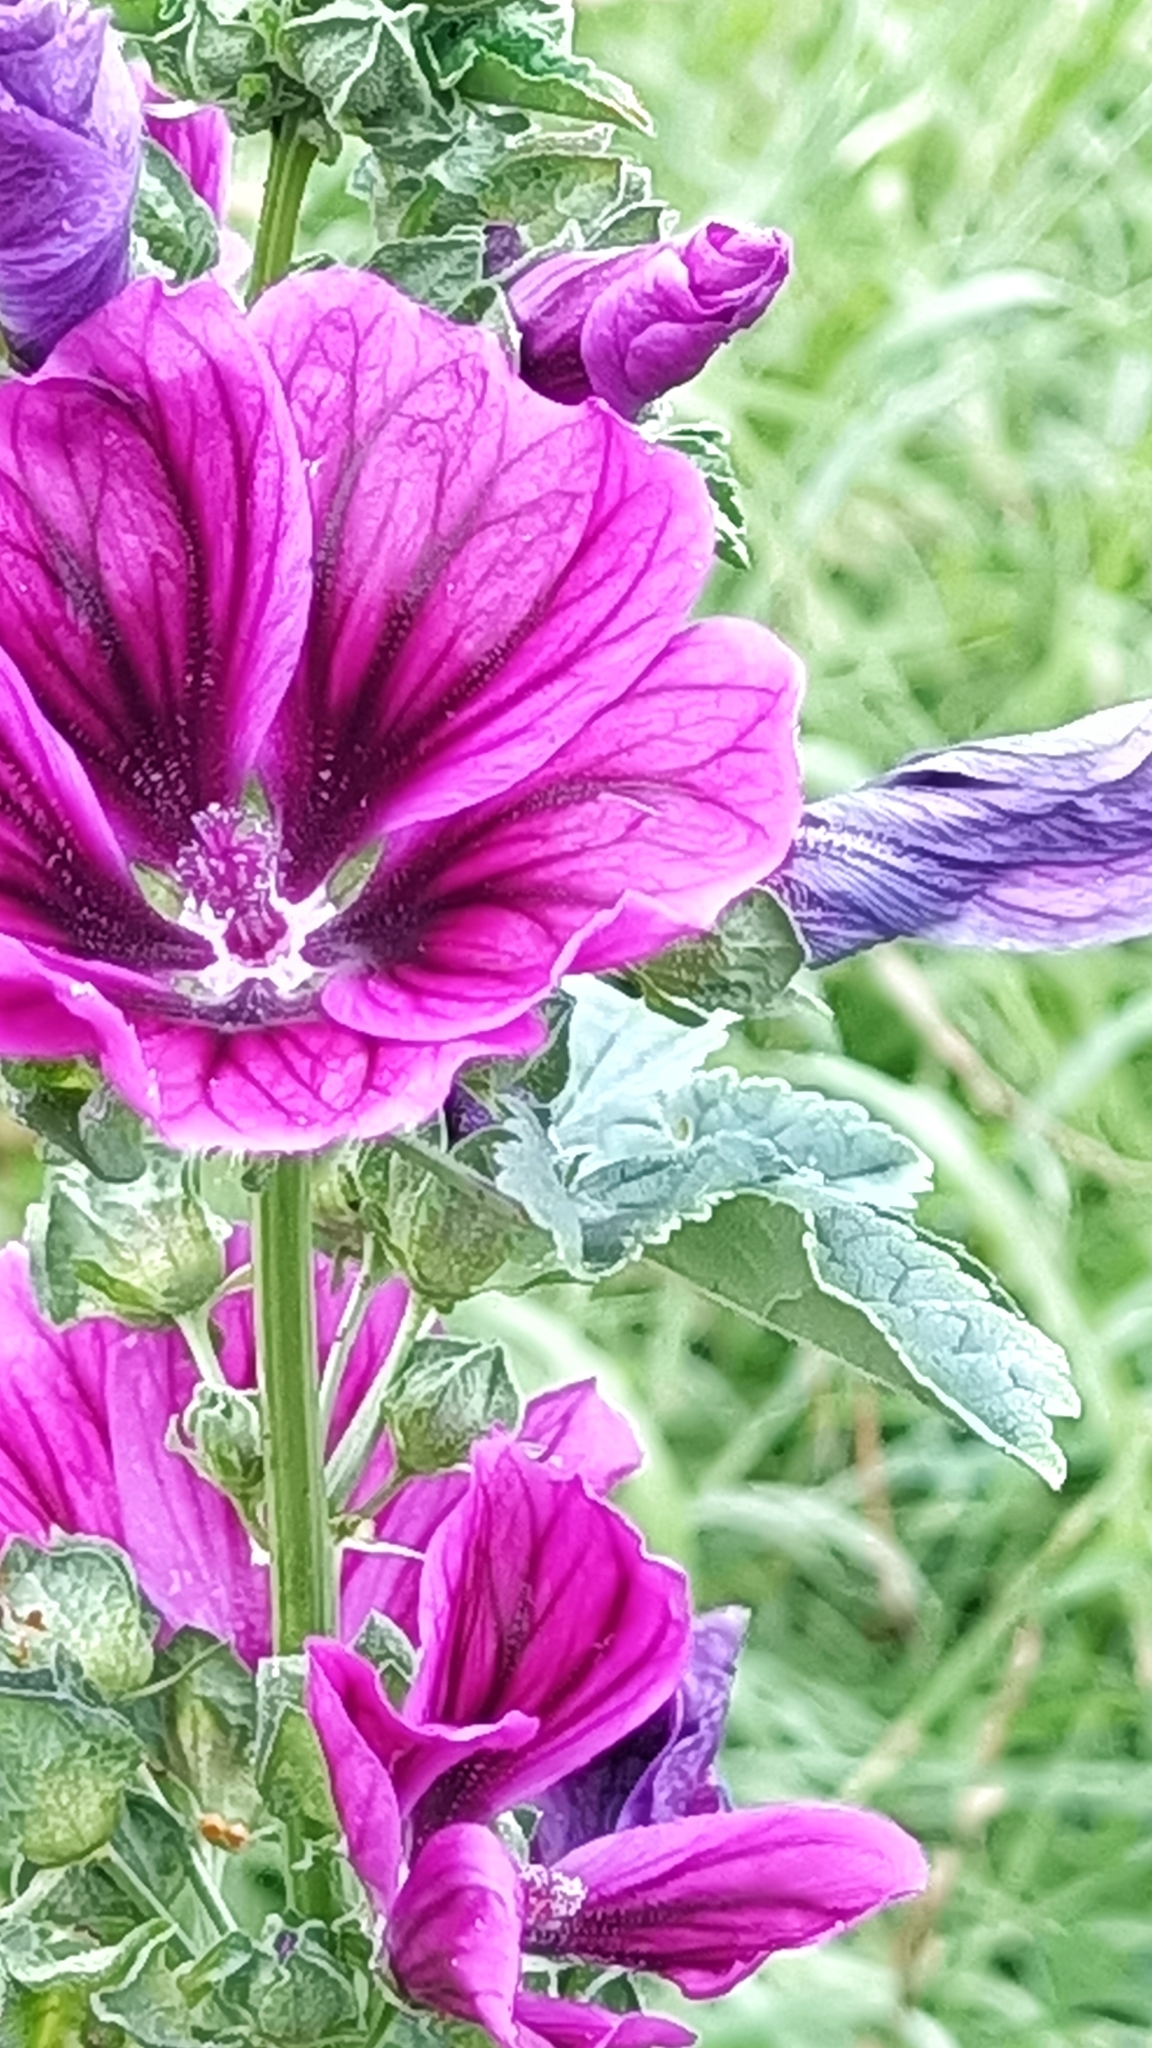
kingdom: Plantae
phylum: Tracheophyta
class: Magnoliopsida
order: Malvales
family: Malvaceae
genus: Malva
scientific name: Malva sylvestris
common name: Common mallow
